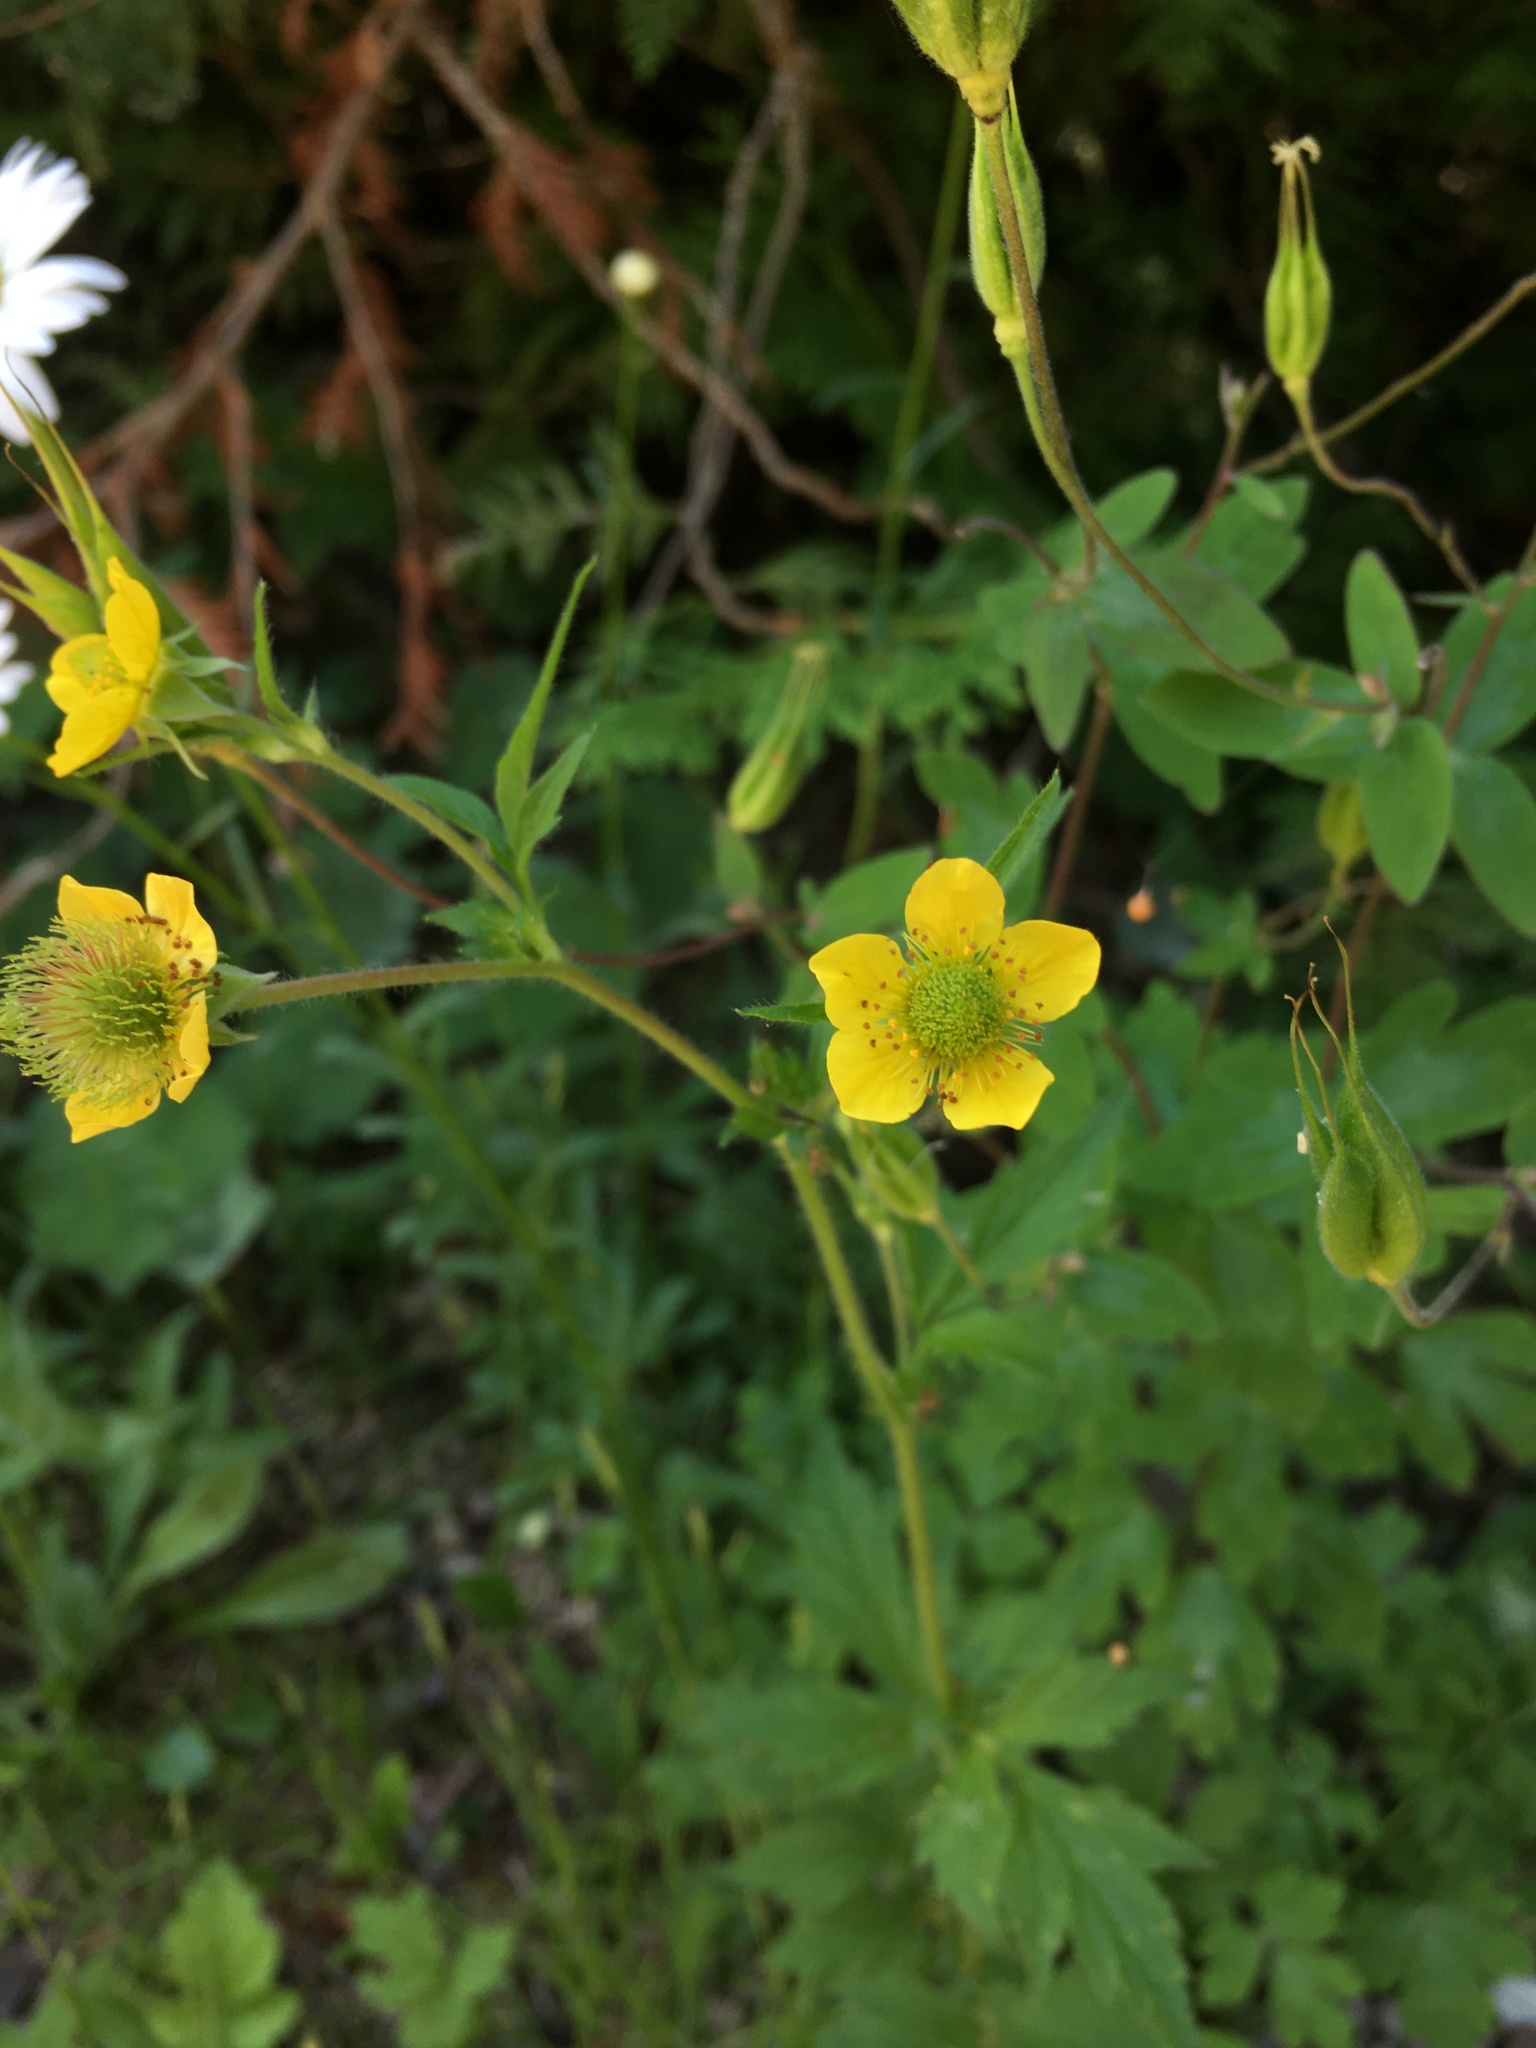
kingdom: Plantae
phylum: Tracheophyta
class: Magnoliopsida
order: Rosales
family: Rosaceae
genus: Geum
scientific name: Geum aleppicum
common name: Yellow avens
